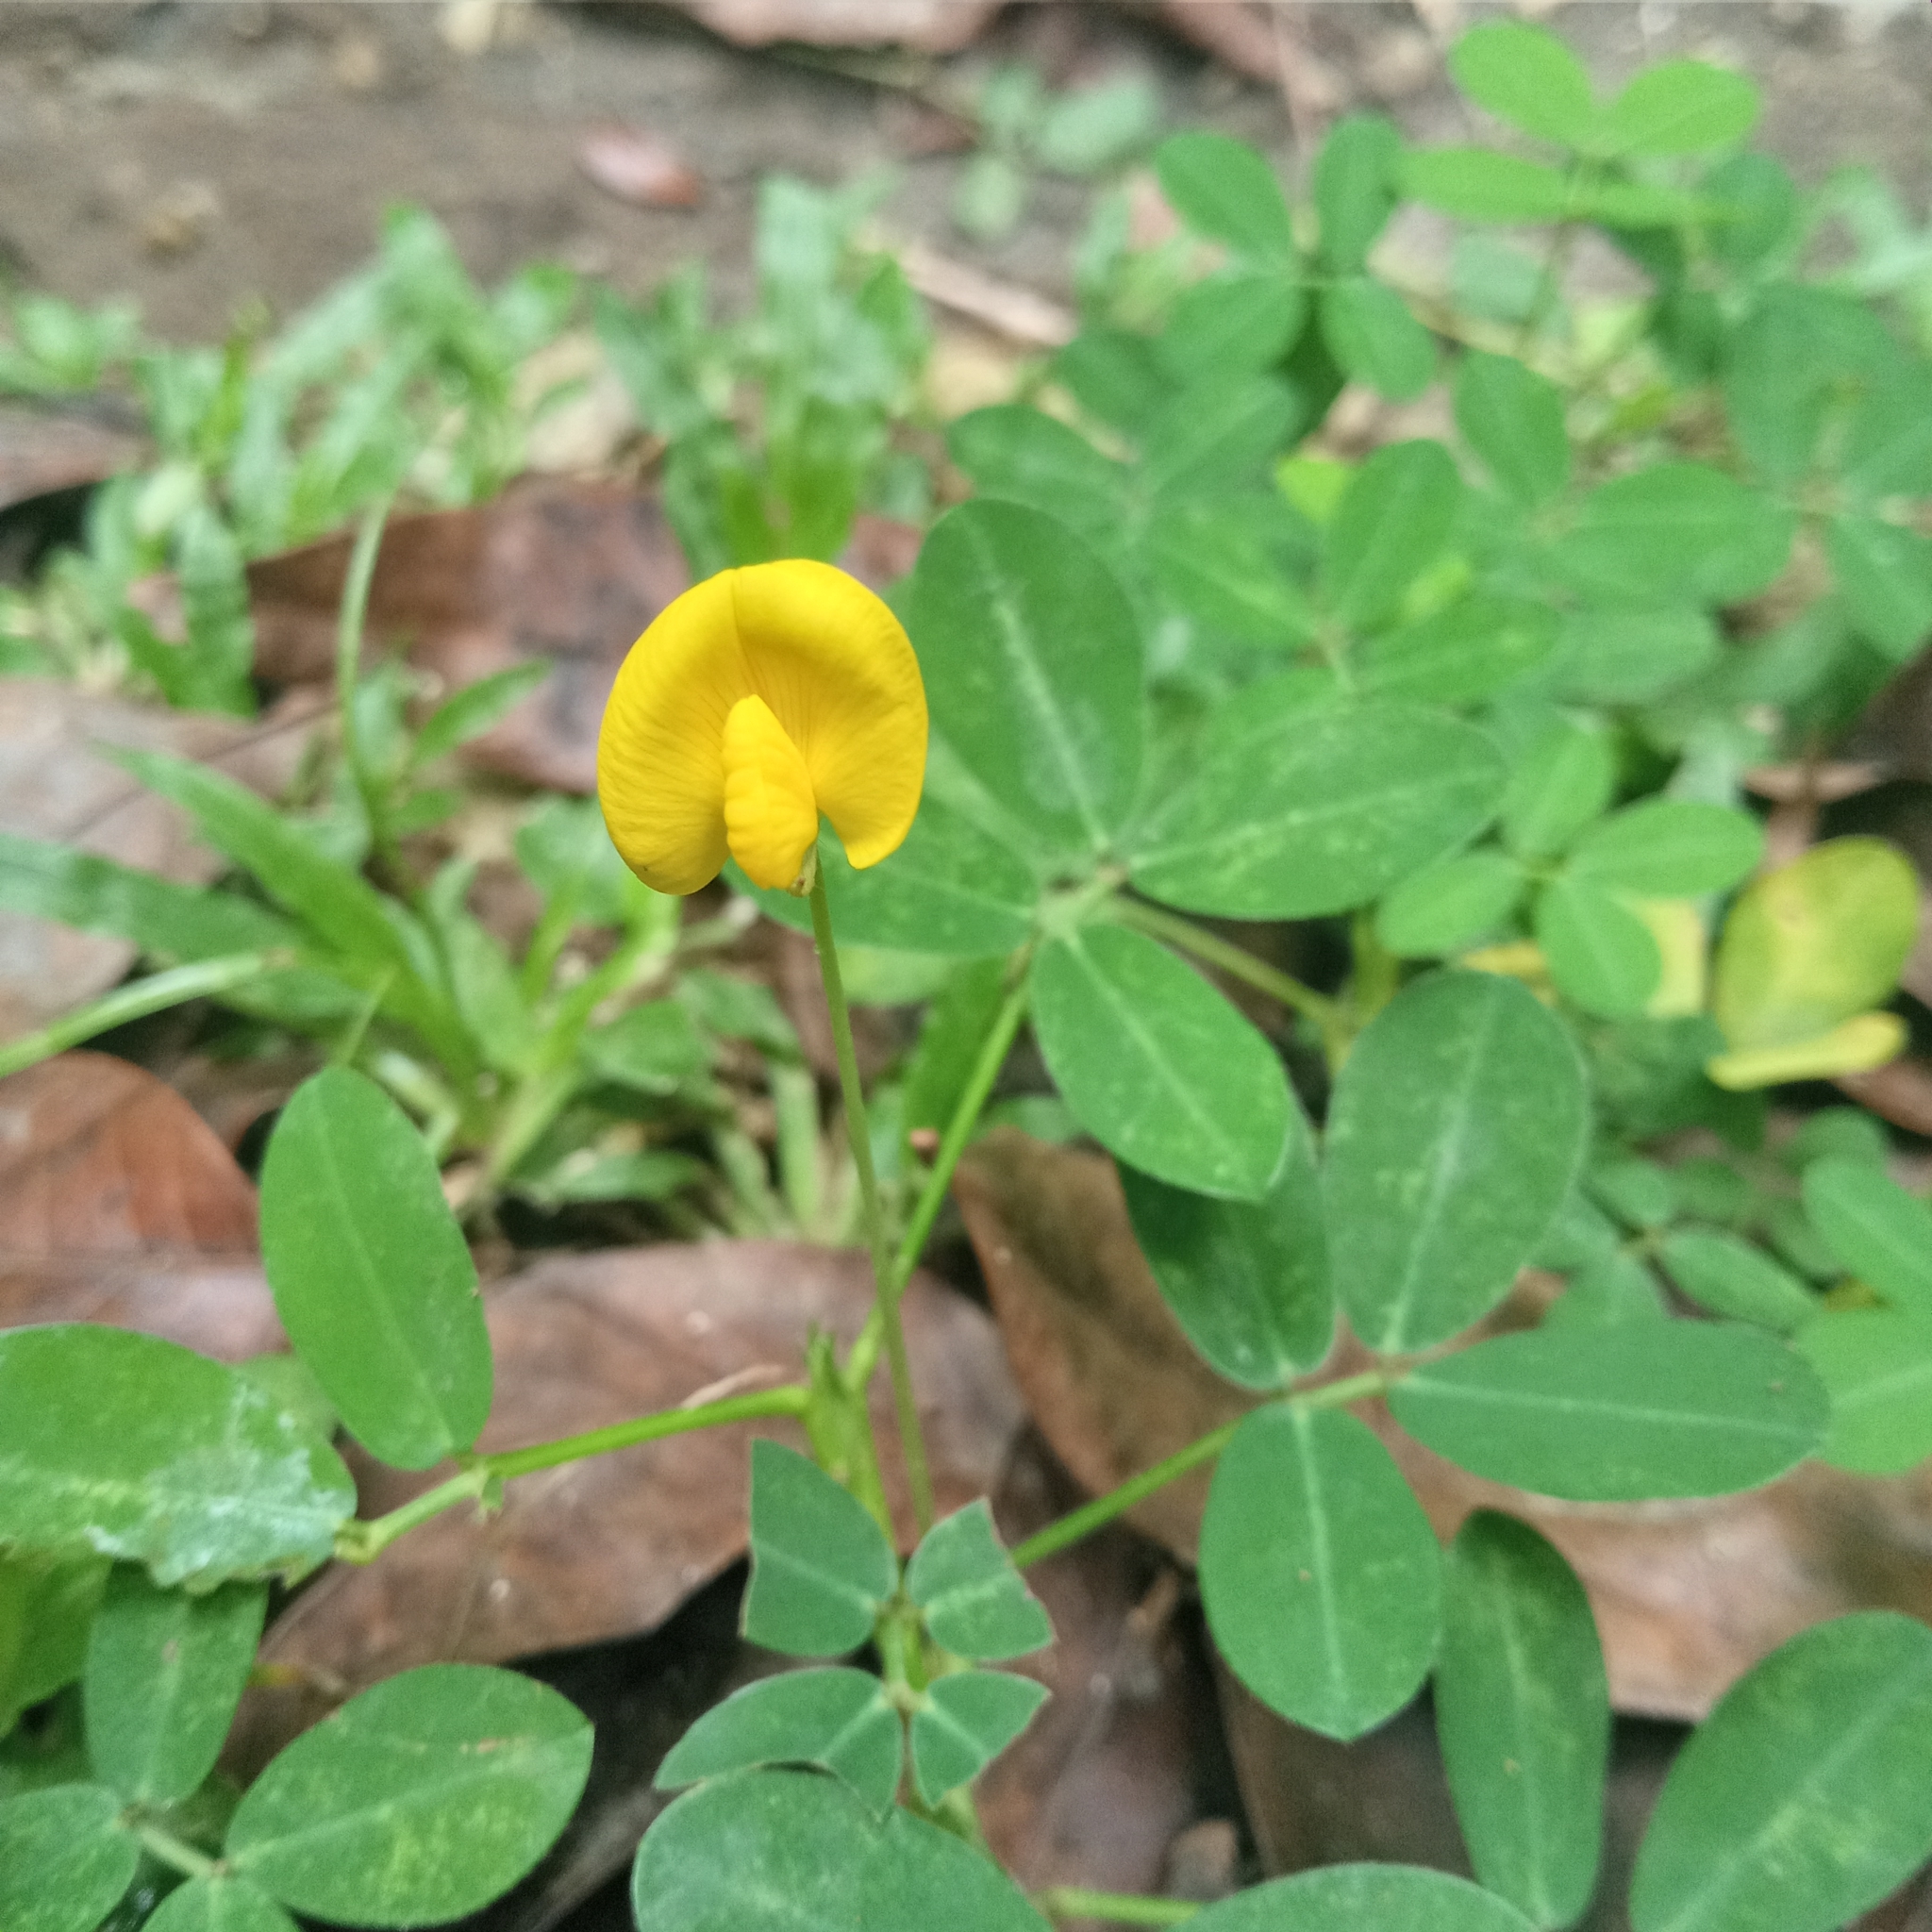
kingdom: Plantae
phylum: Tracheophyta
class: Magnoliopsida
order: Fabales
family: Fabaceae
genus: Arachis
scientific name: Arachis pintoi
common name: Pinto peanut
